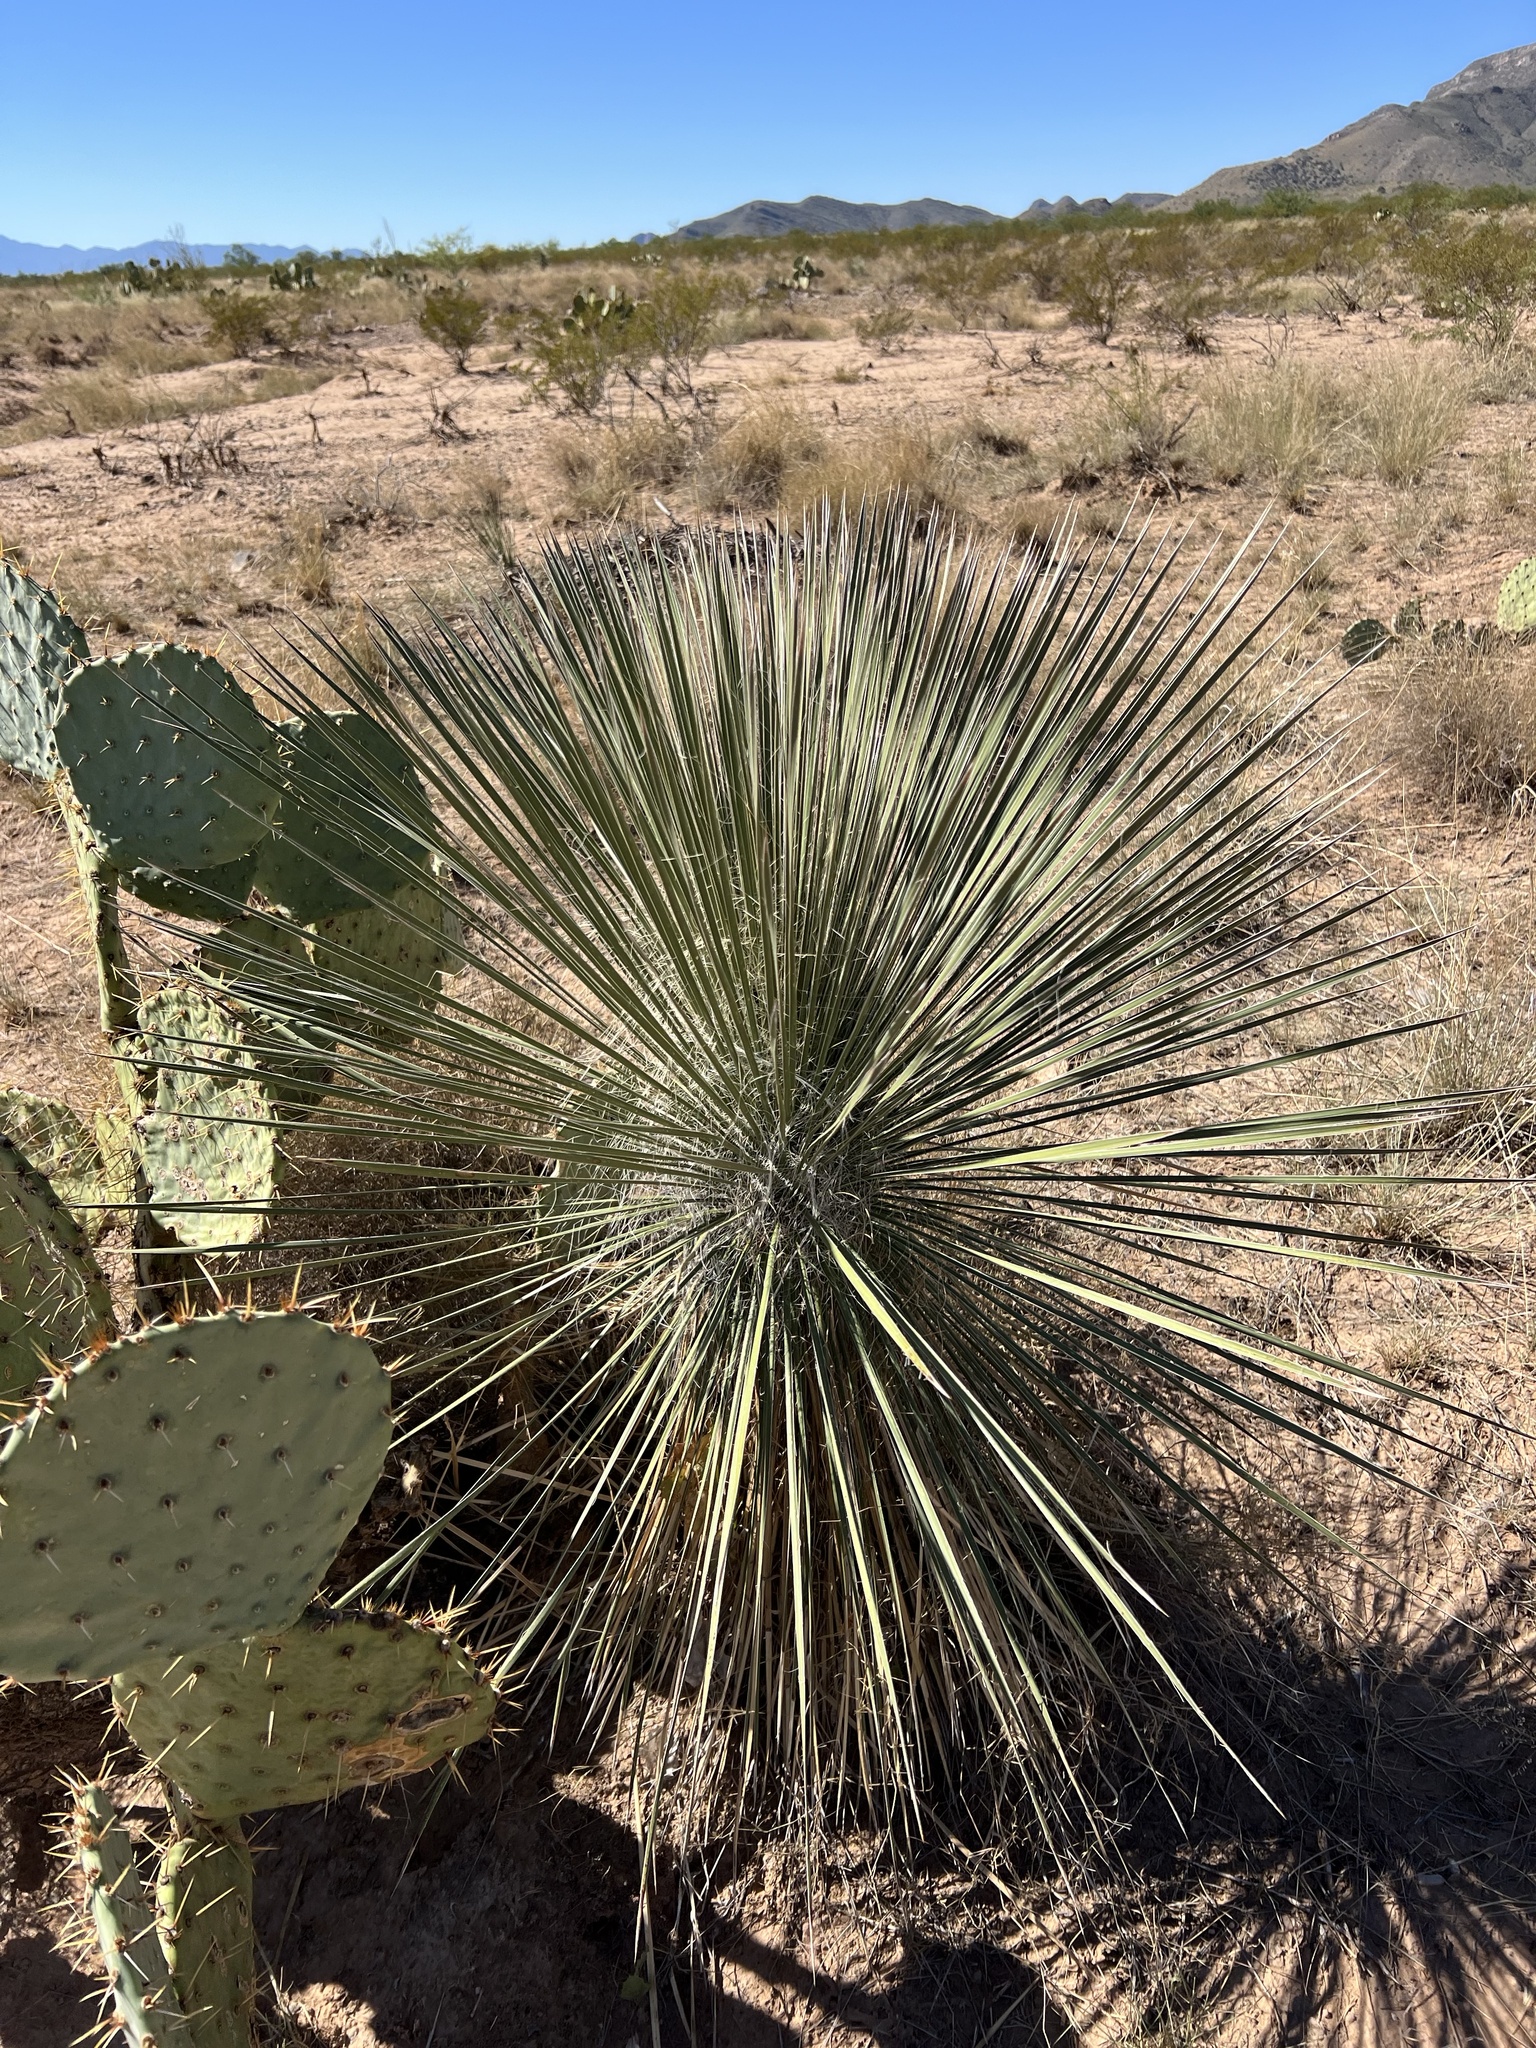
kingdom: Plantae
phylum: Tracheophyta
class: Liliopsida
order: Asparagales
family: Asparagaceae
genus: Yucca
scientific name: Yucca elata
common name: Palmella
